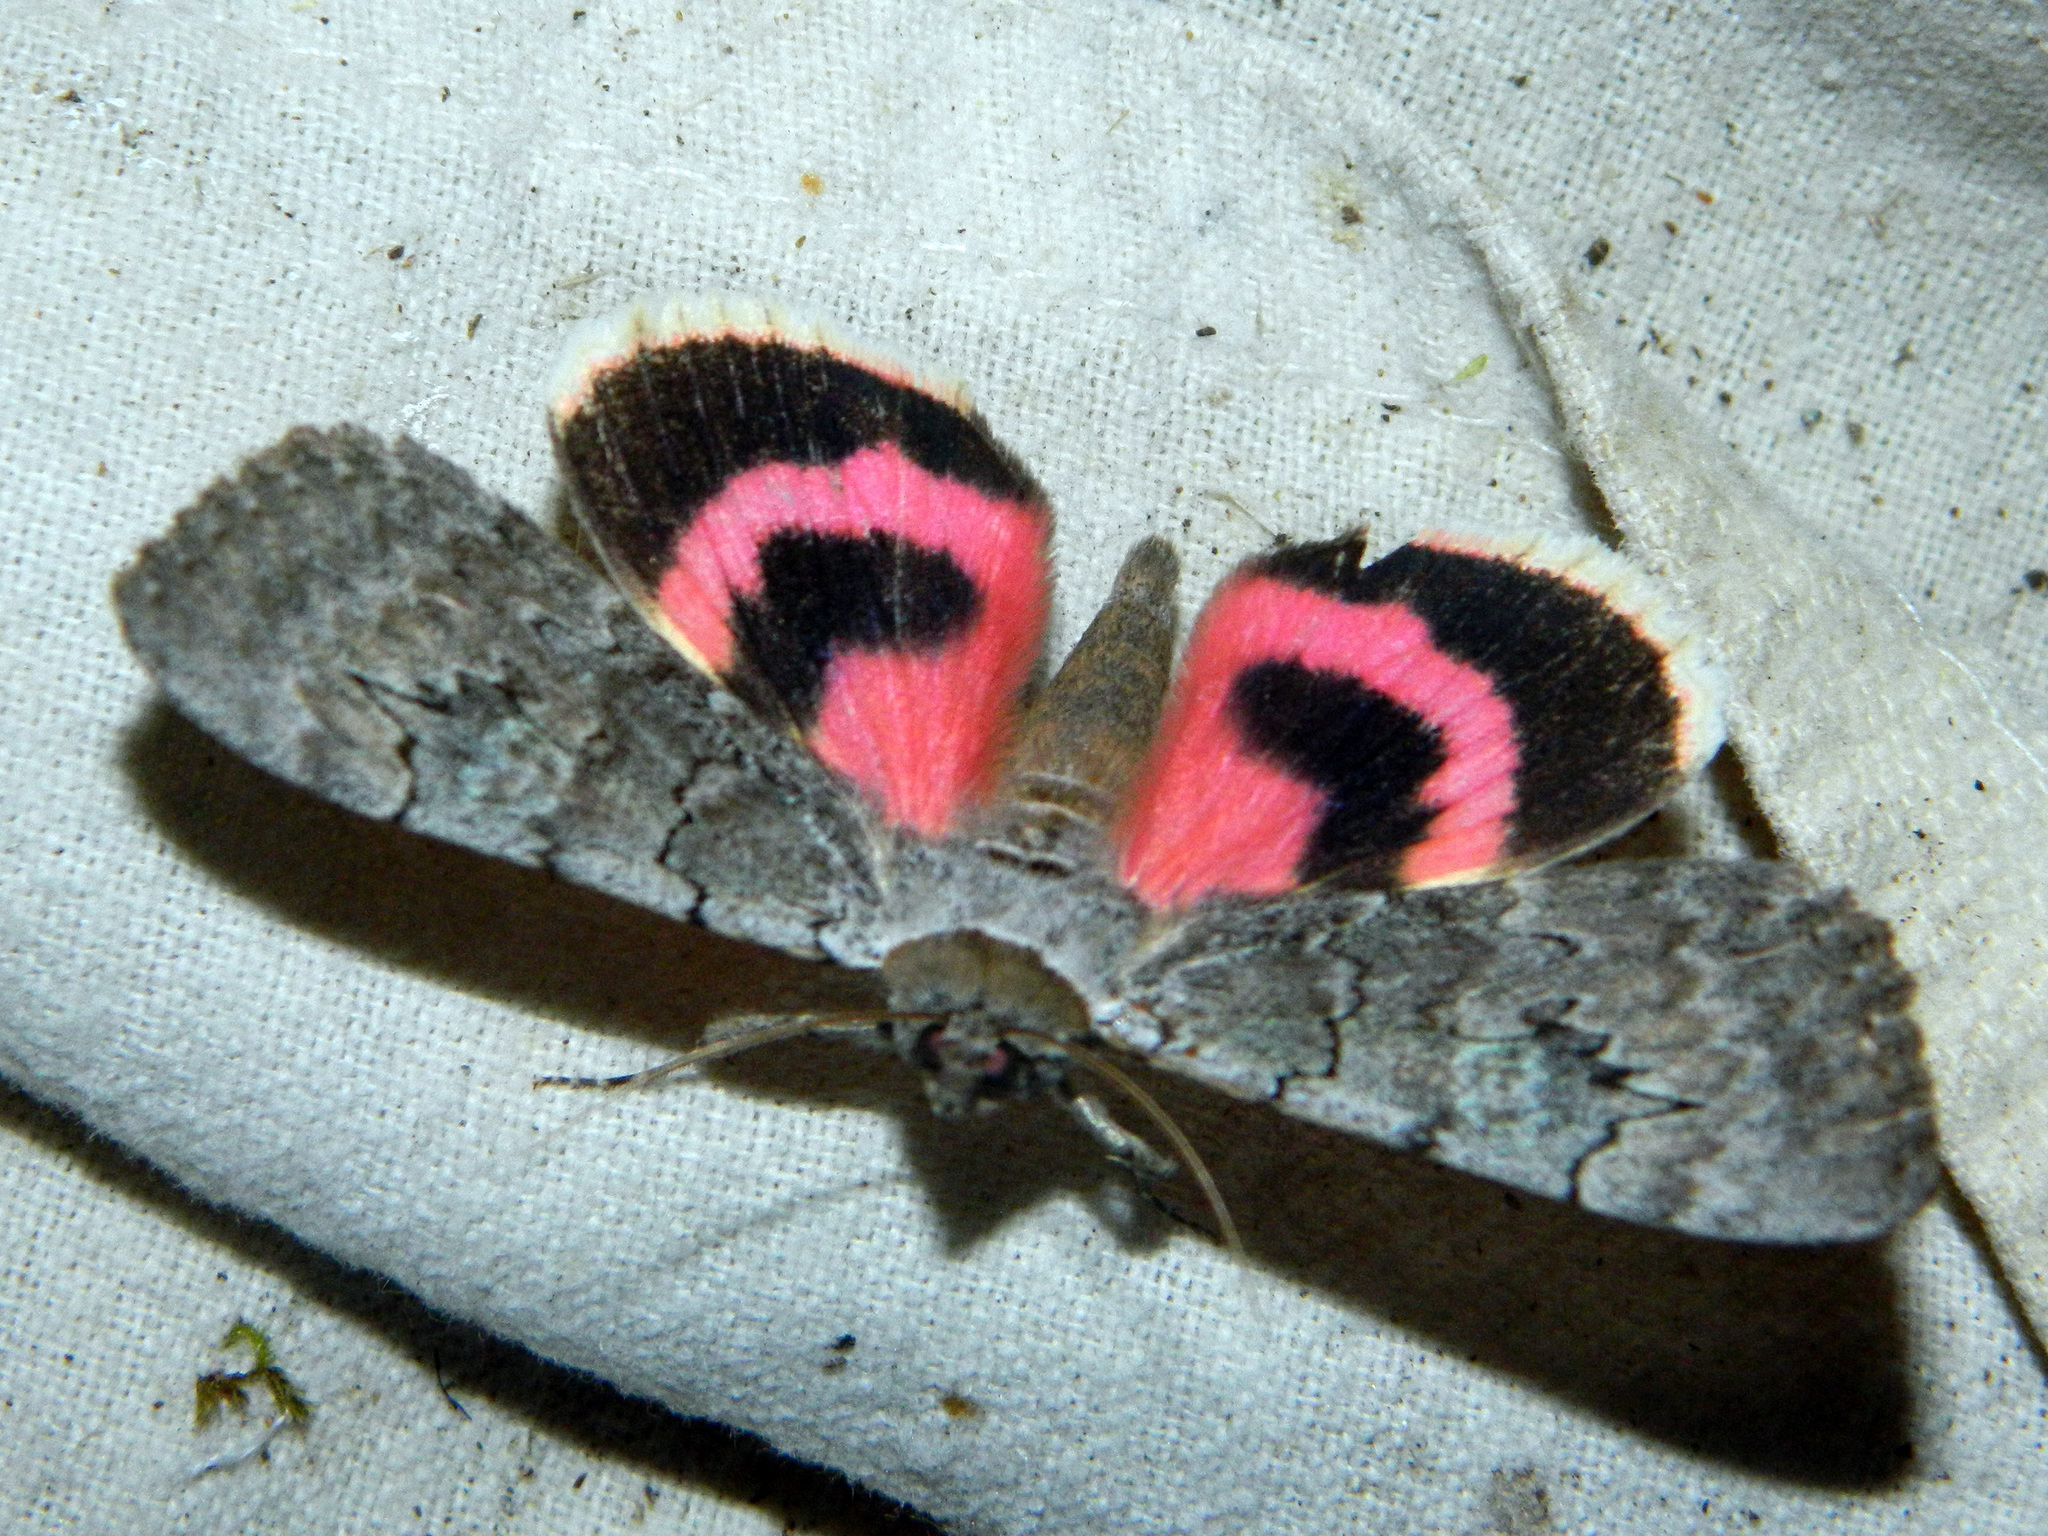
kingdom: Animalia
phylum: Arthropoda
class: Insecta
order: Lepidoptera
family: Erebidae
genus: Catocala
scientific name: Catocala concumbens
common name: Pink underwing
